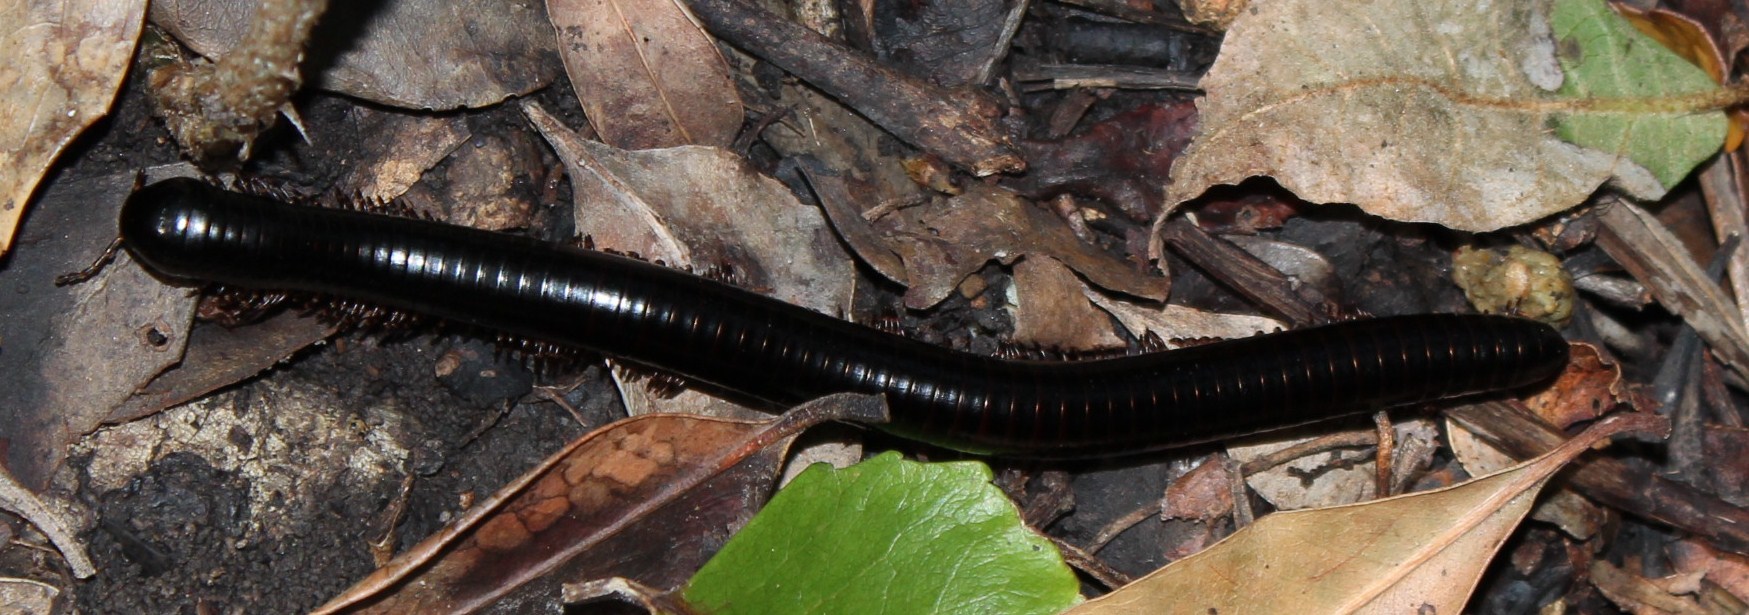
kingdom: Animalia
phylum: Arthropoda
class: Diplopoda
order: Spirostreptida
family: Spirostreptidae
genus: Doratogonus
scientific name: Doratogonus annulipes
